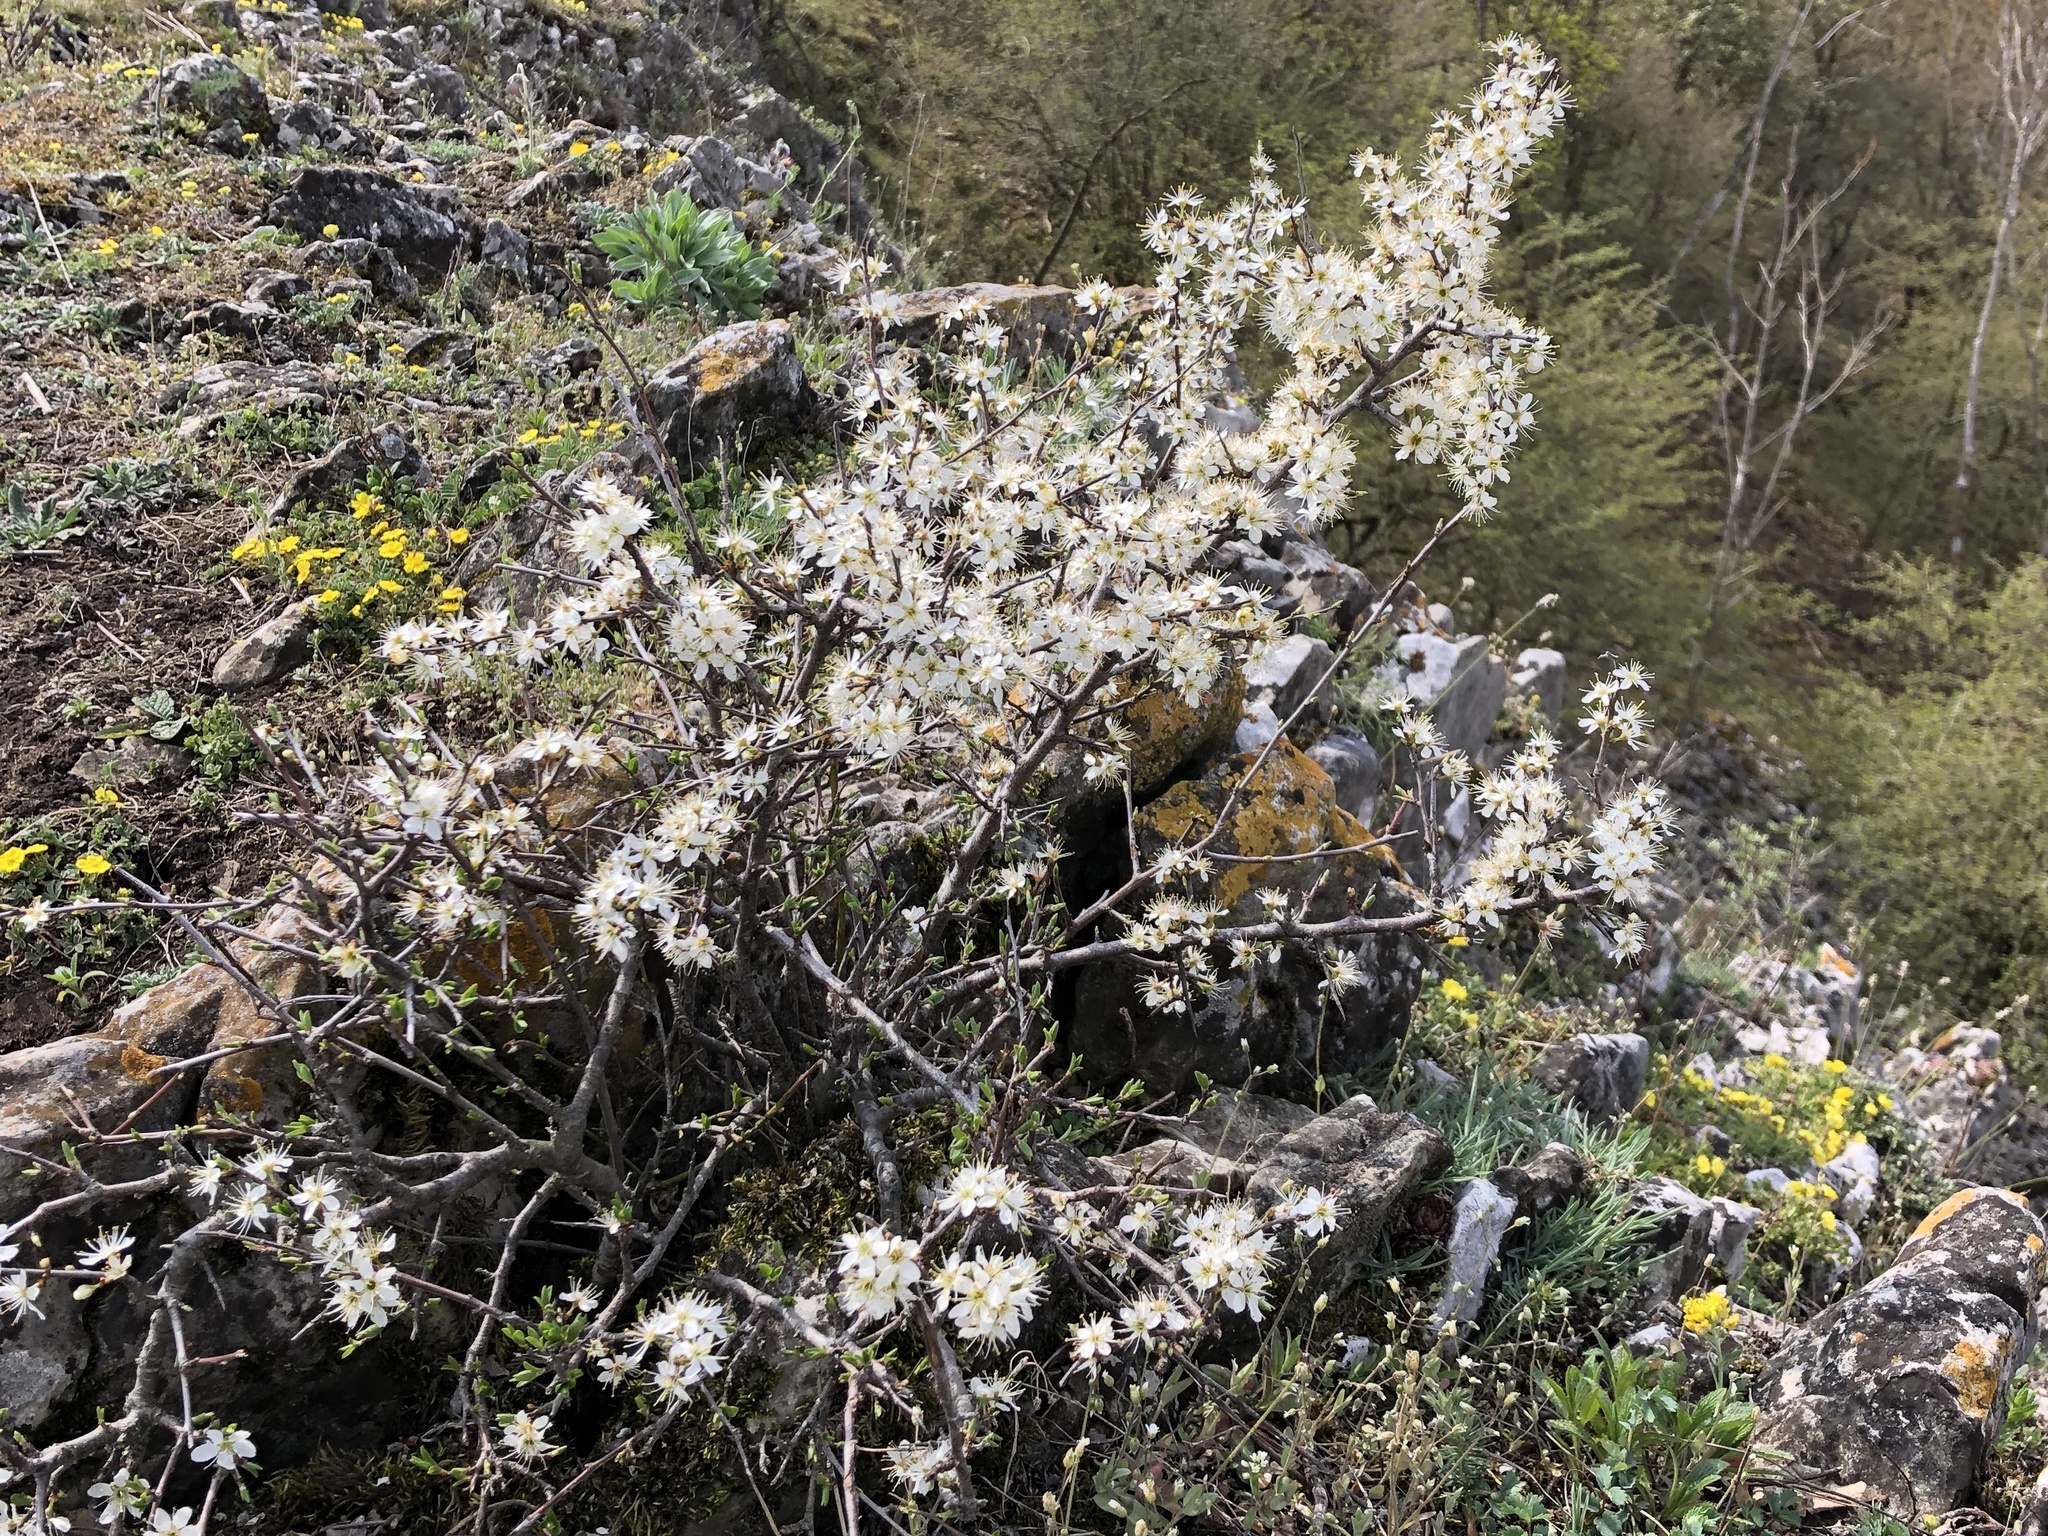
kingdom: Plantae
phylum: Tracheophyta
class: Magnoliopsida
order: Rosales
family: Rosaceae
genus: Prunus
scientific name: Prunus spinosa
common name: Blackthorn
